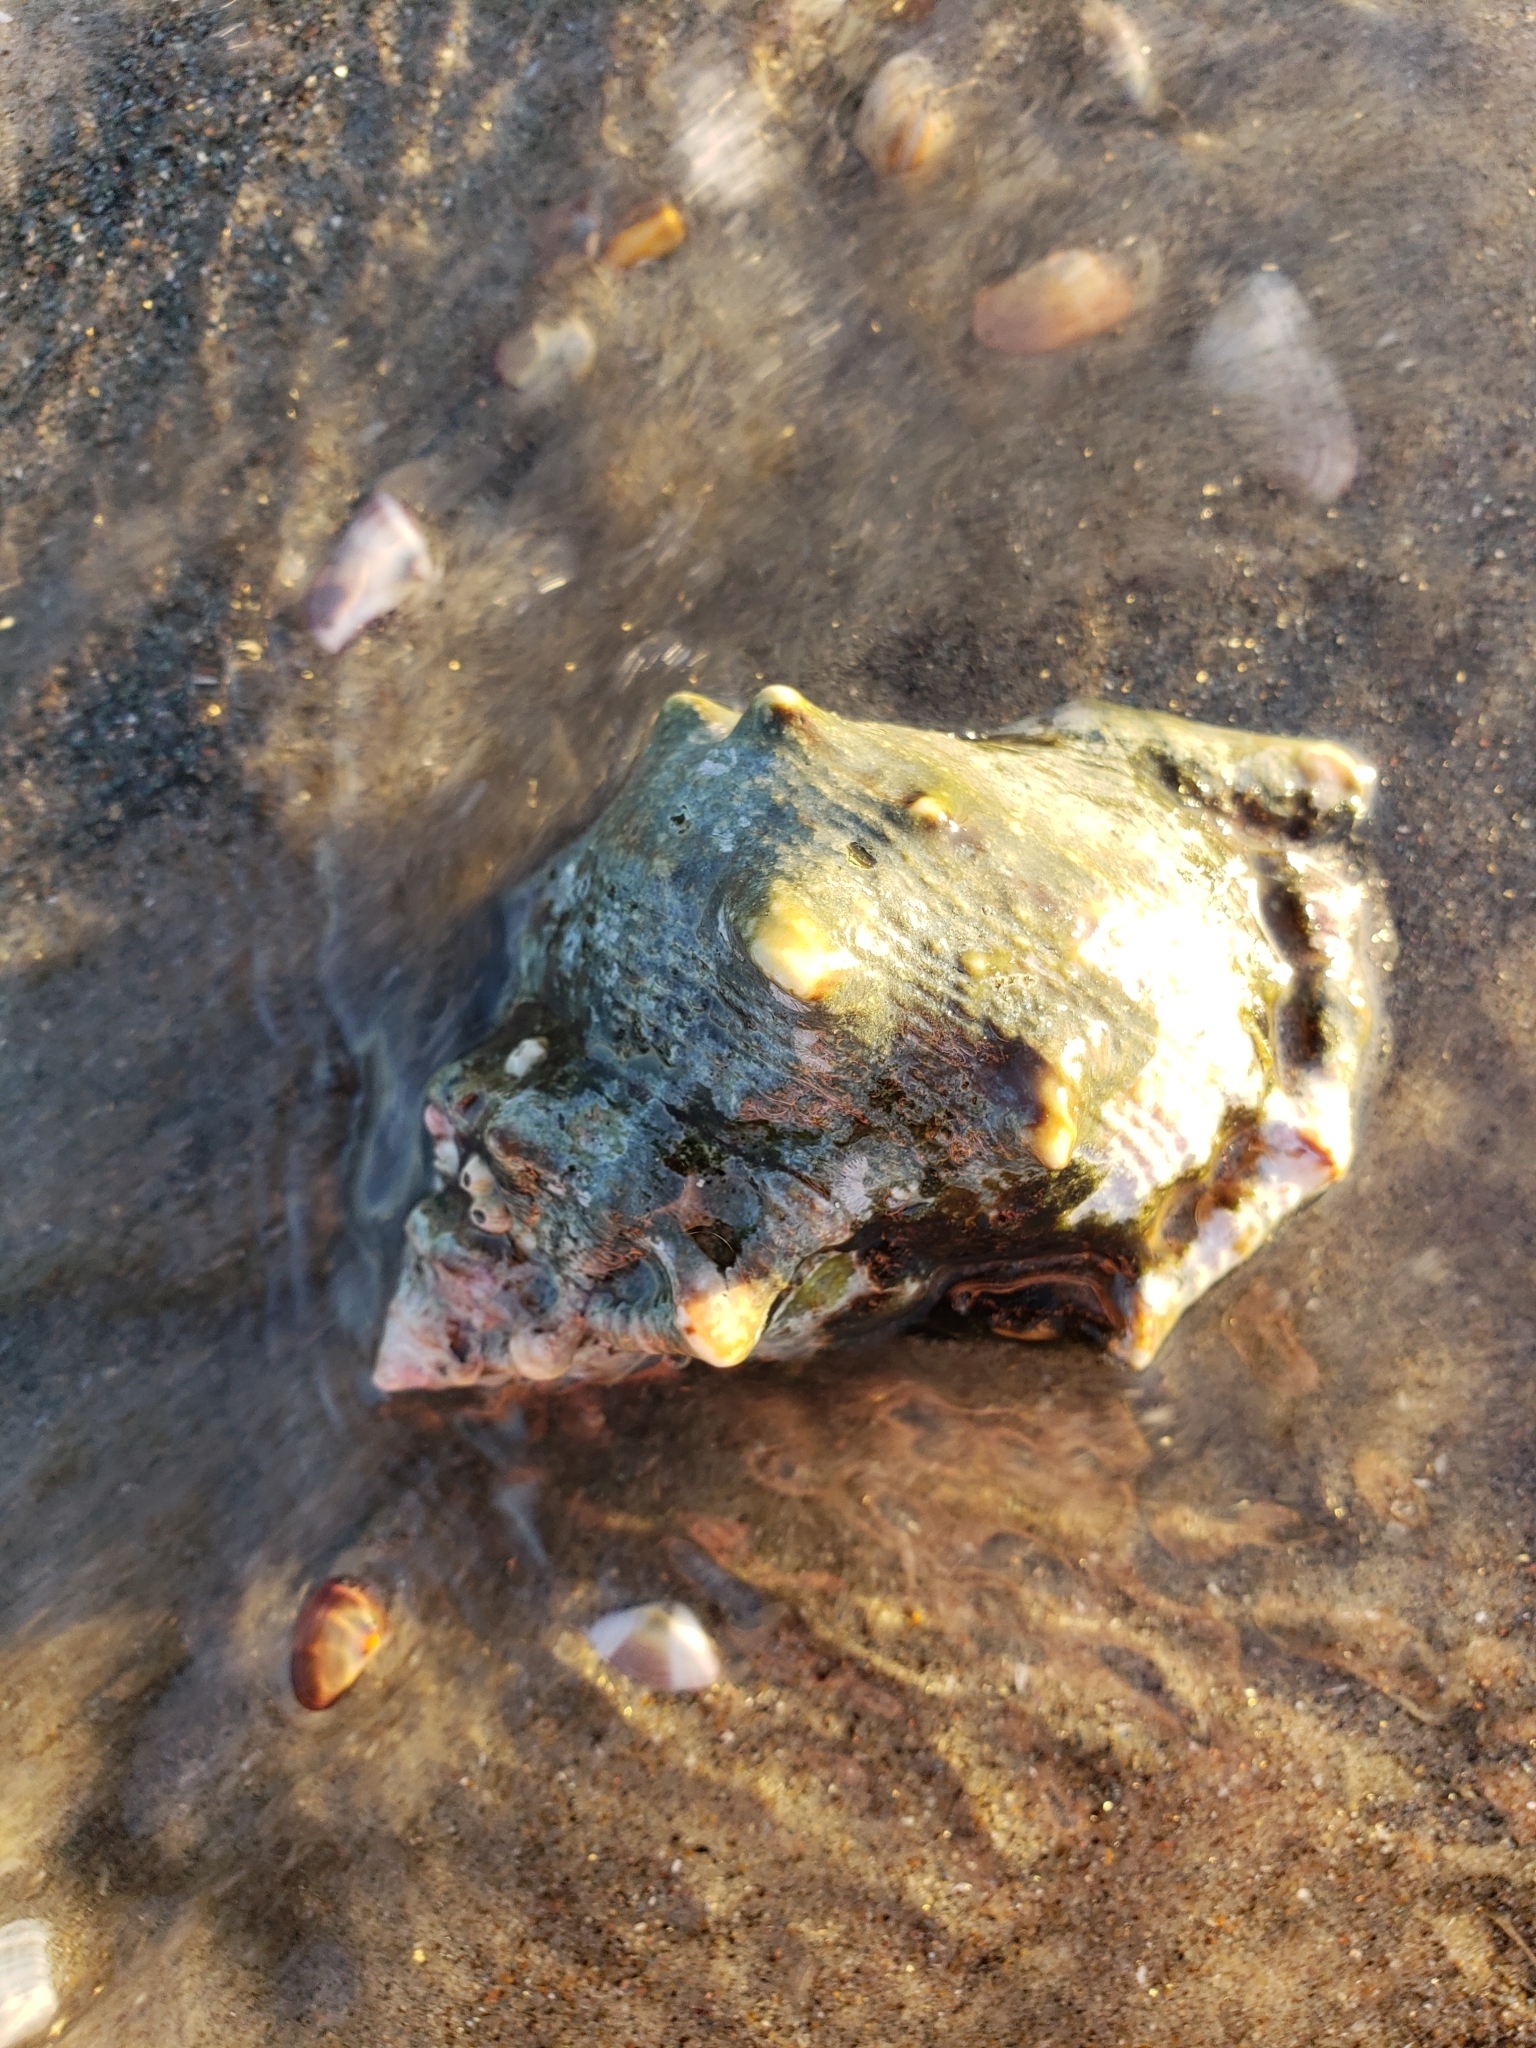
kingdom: Animalia
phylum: Mollusca
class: Gastropoda
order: Littorinimorpha
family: Bursidae
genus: Crossata
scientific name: Crossata californica
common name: California frogsnail
